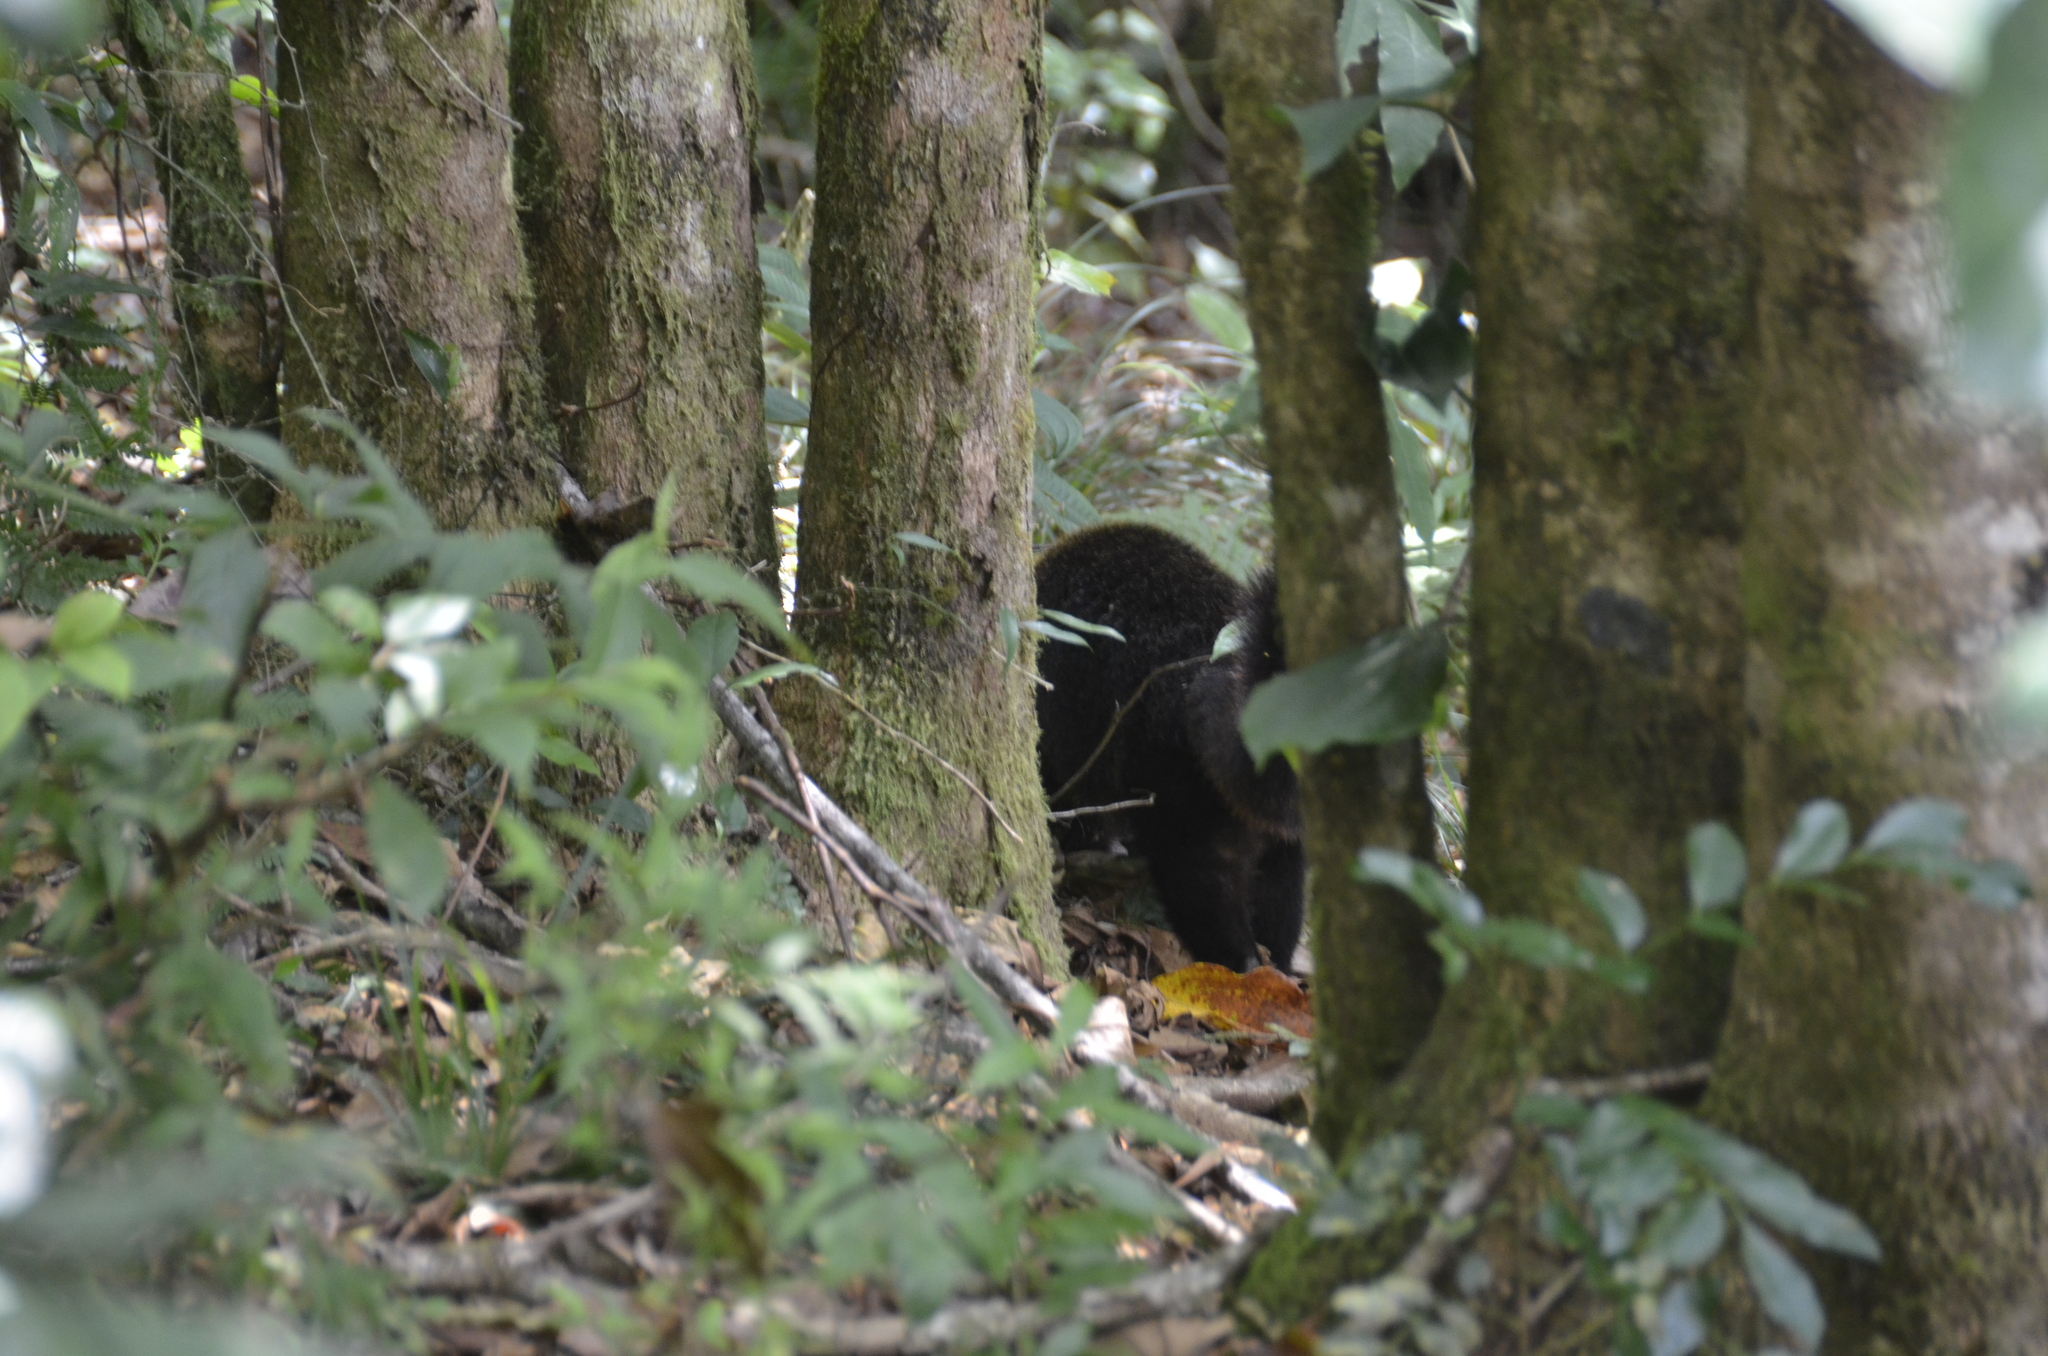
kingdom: Animalia
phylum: Chordata
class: Mammalia
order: Carnivora
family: Procyonidae
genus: Nasua
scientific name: Nasua narica
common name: White-nosed coati
